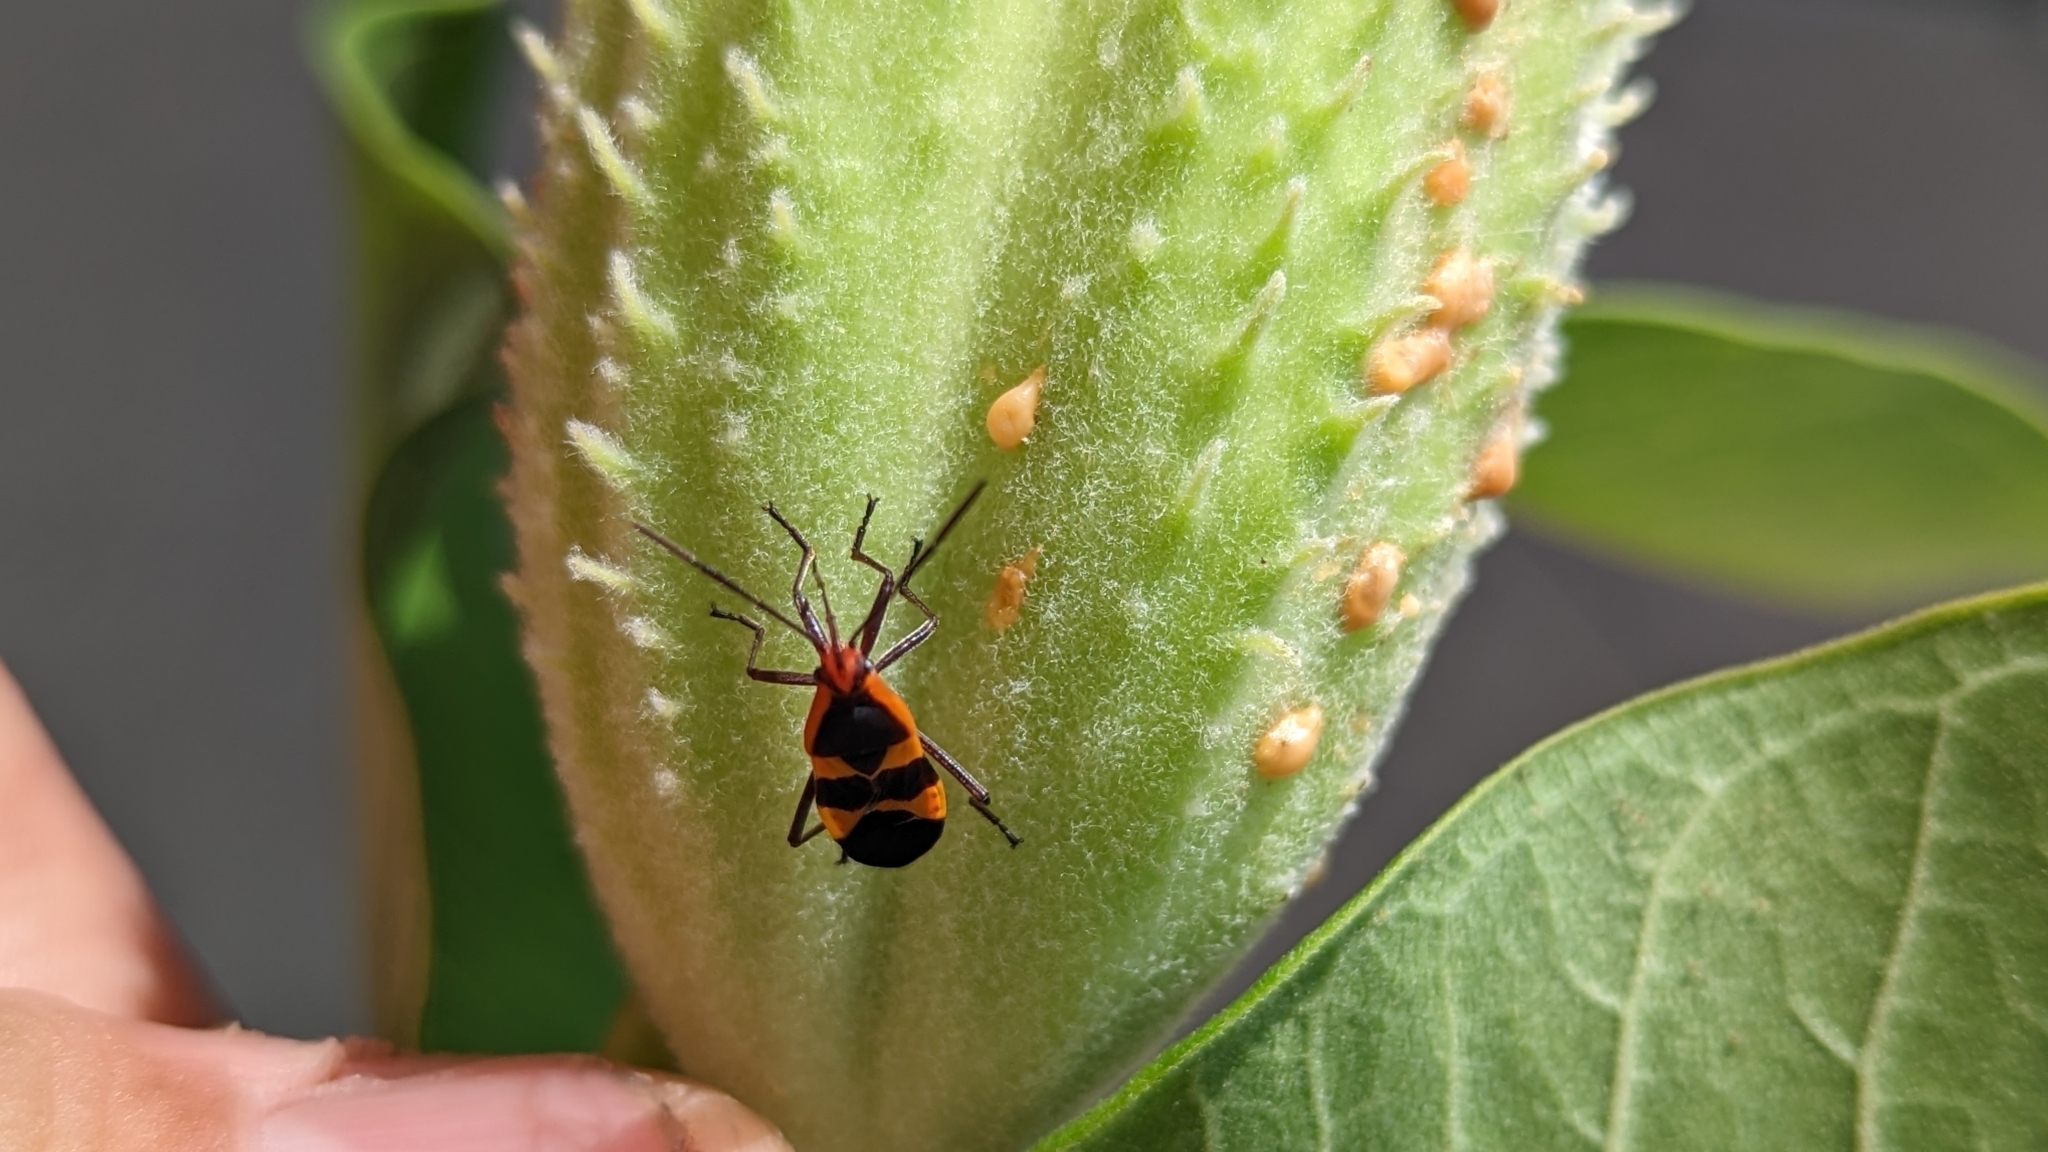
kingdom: Animalia
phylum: Arthropoda
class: Insecta
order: Hemiptera
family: Lygaeidae
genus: Oncopeltus
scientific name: Oncopeltus fasciatus
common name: Large milkweed bug
